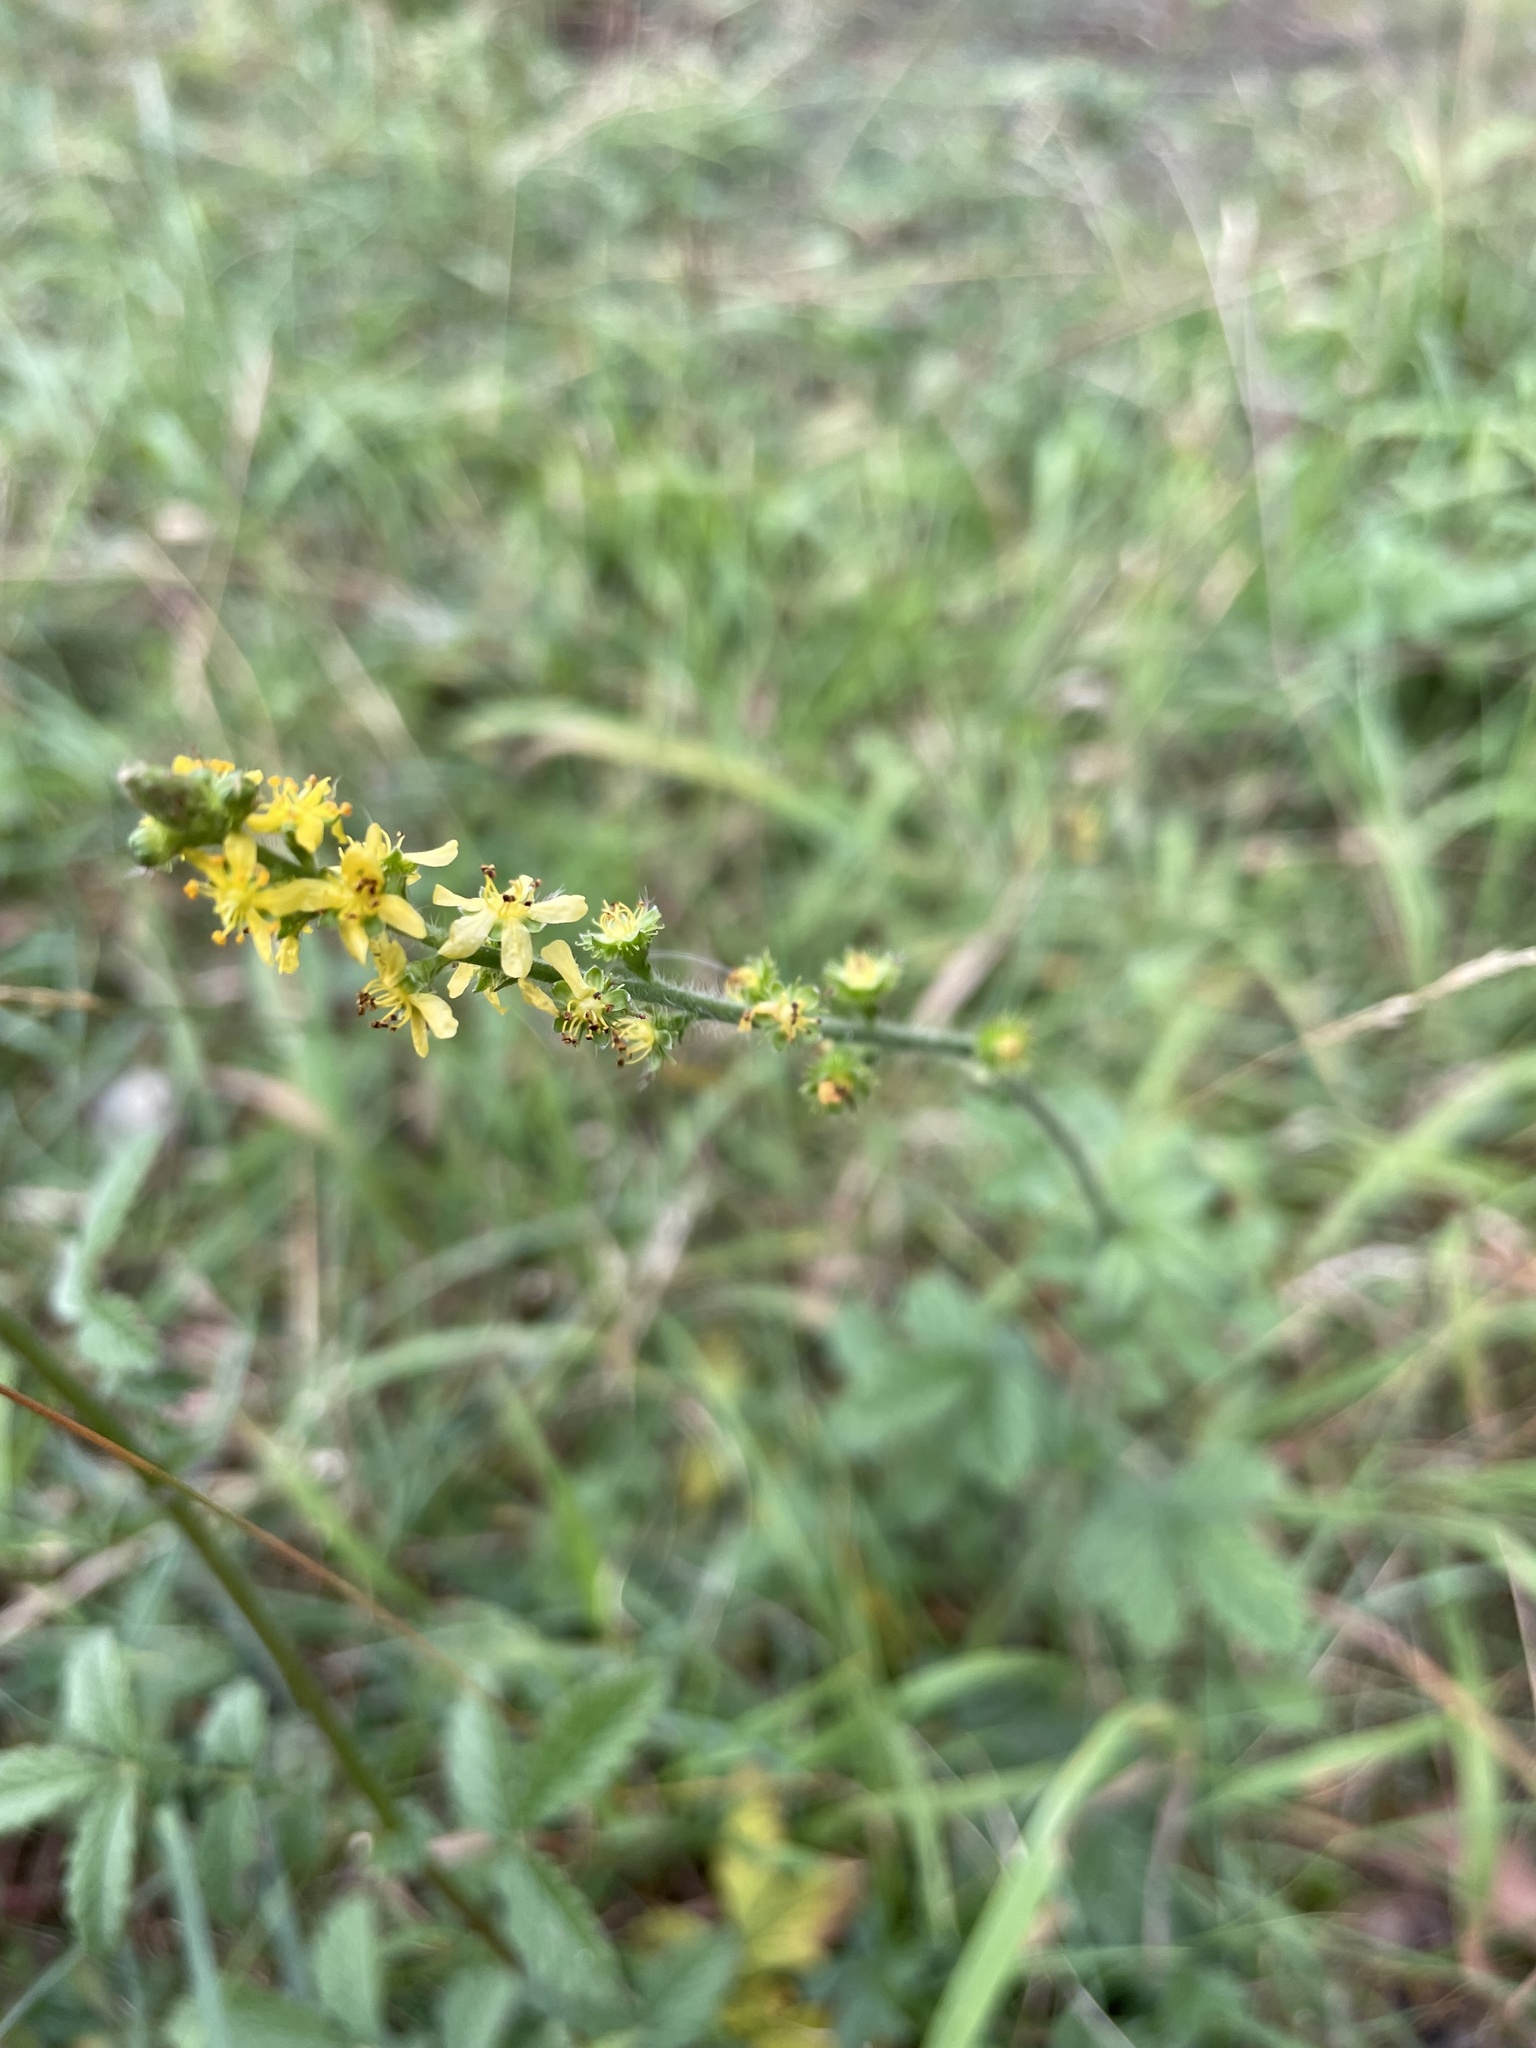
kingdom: Plantae
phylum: Tracheophyta
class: Magnoliopsida
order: Rosales
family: Rosaceae
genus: Agrimonia
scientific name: Agrimonia eupatoria
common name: Agrimony
